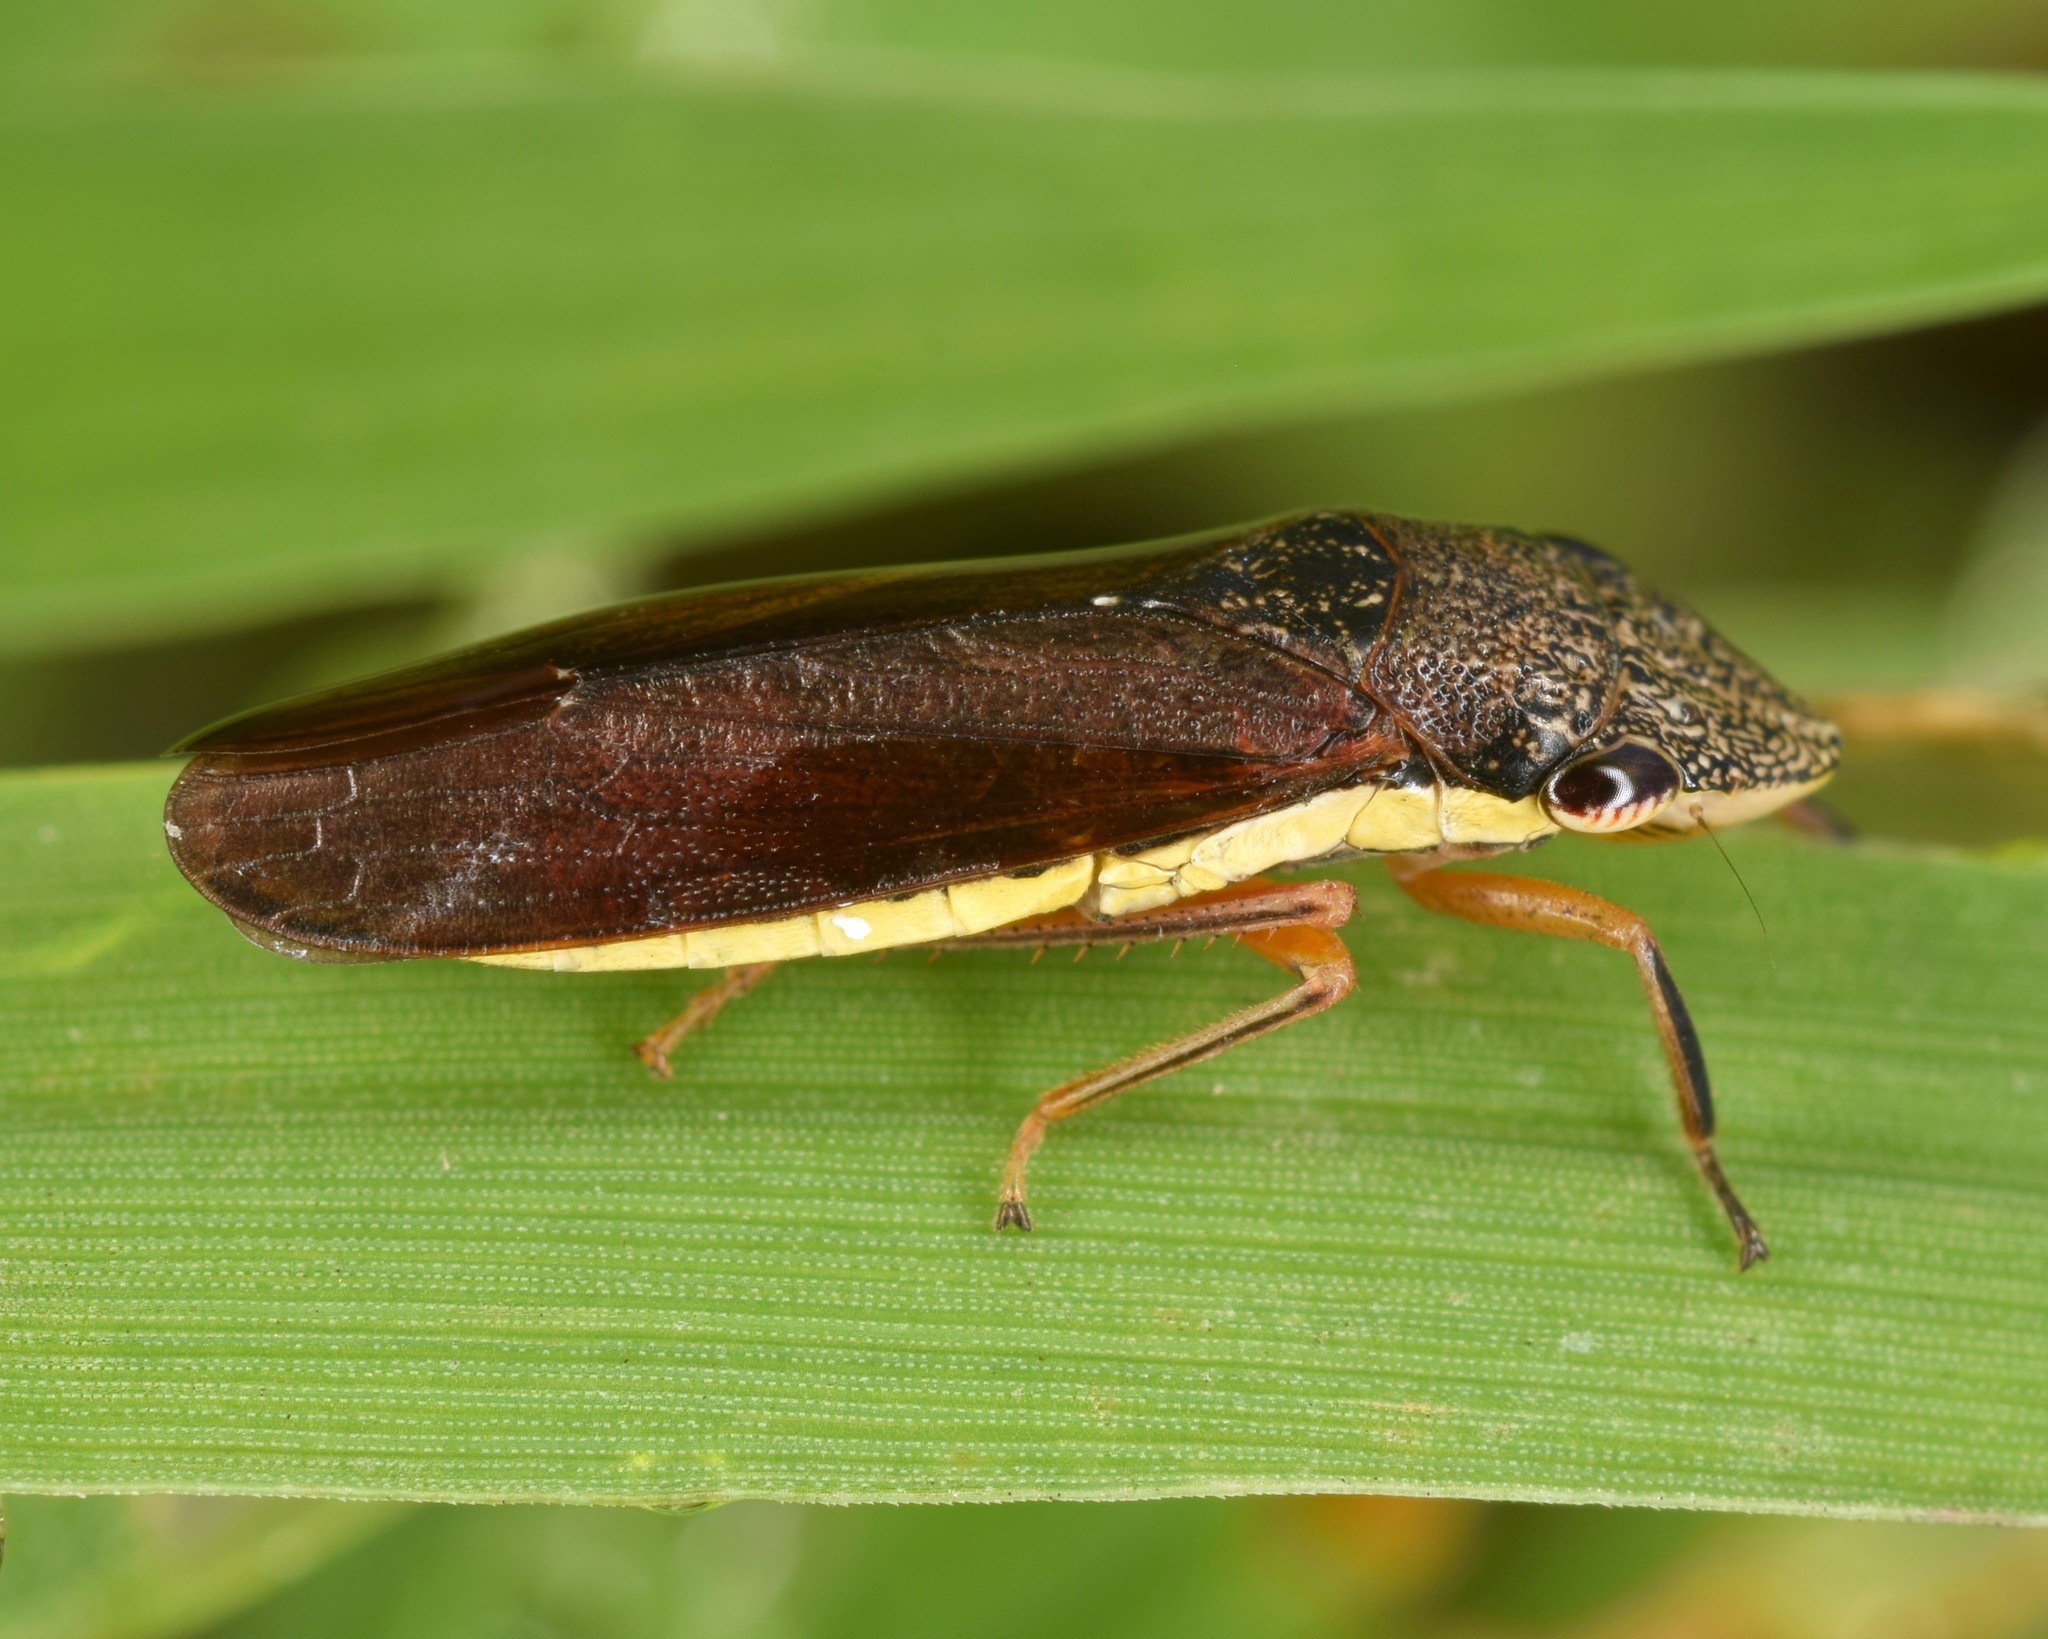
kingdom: Animalia
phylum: Arthropoda
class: Insecta
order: Hemiptera
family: Cicadellidae
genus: Homalodisca
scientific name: Homalodisca insolita
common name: Johnson grass sharpshooter
